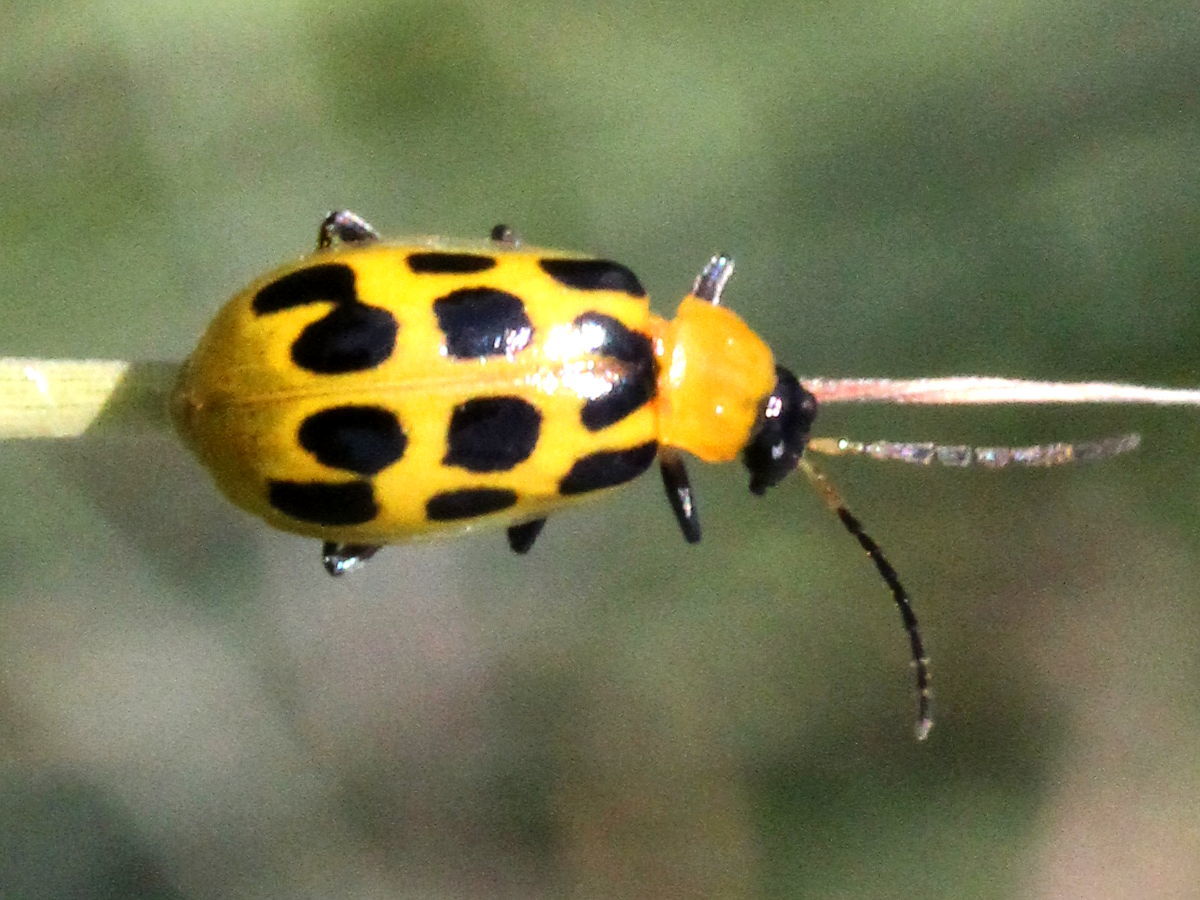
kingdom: Animalia
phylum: Arthropoda
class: Insecta
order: Coleoptera
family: Chrysomelidae
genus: Diabrotica
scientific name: Diabrotica undecimpunctata
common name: Spotted cucumber beetle
